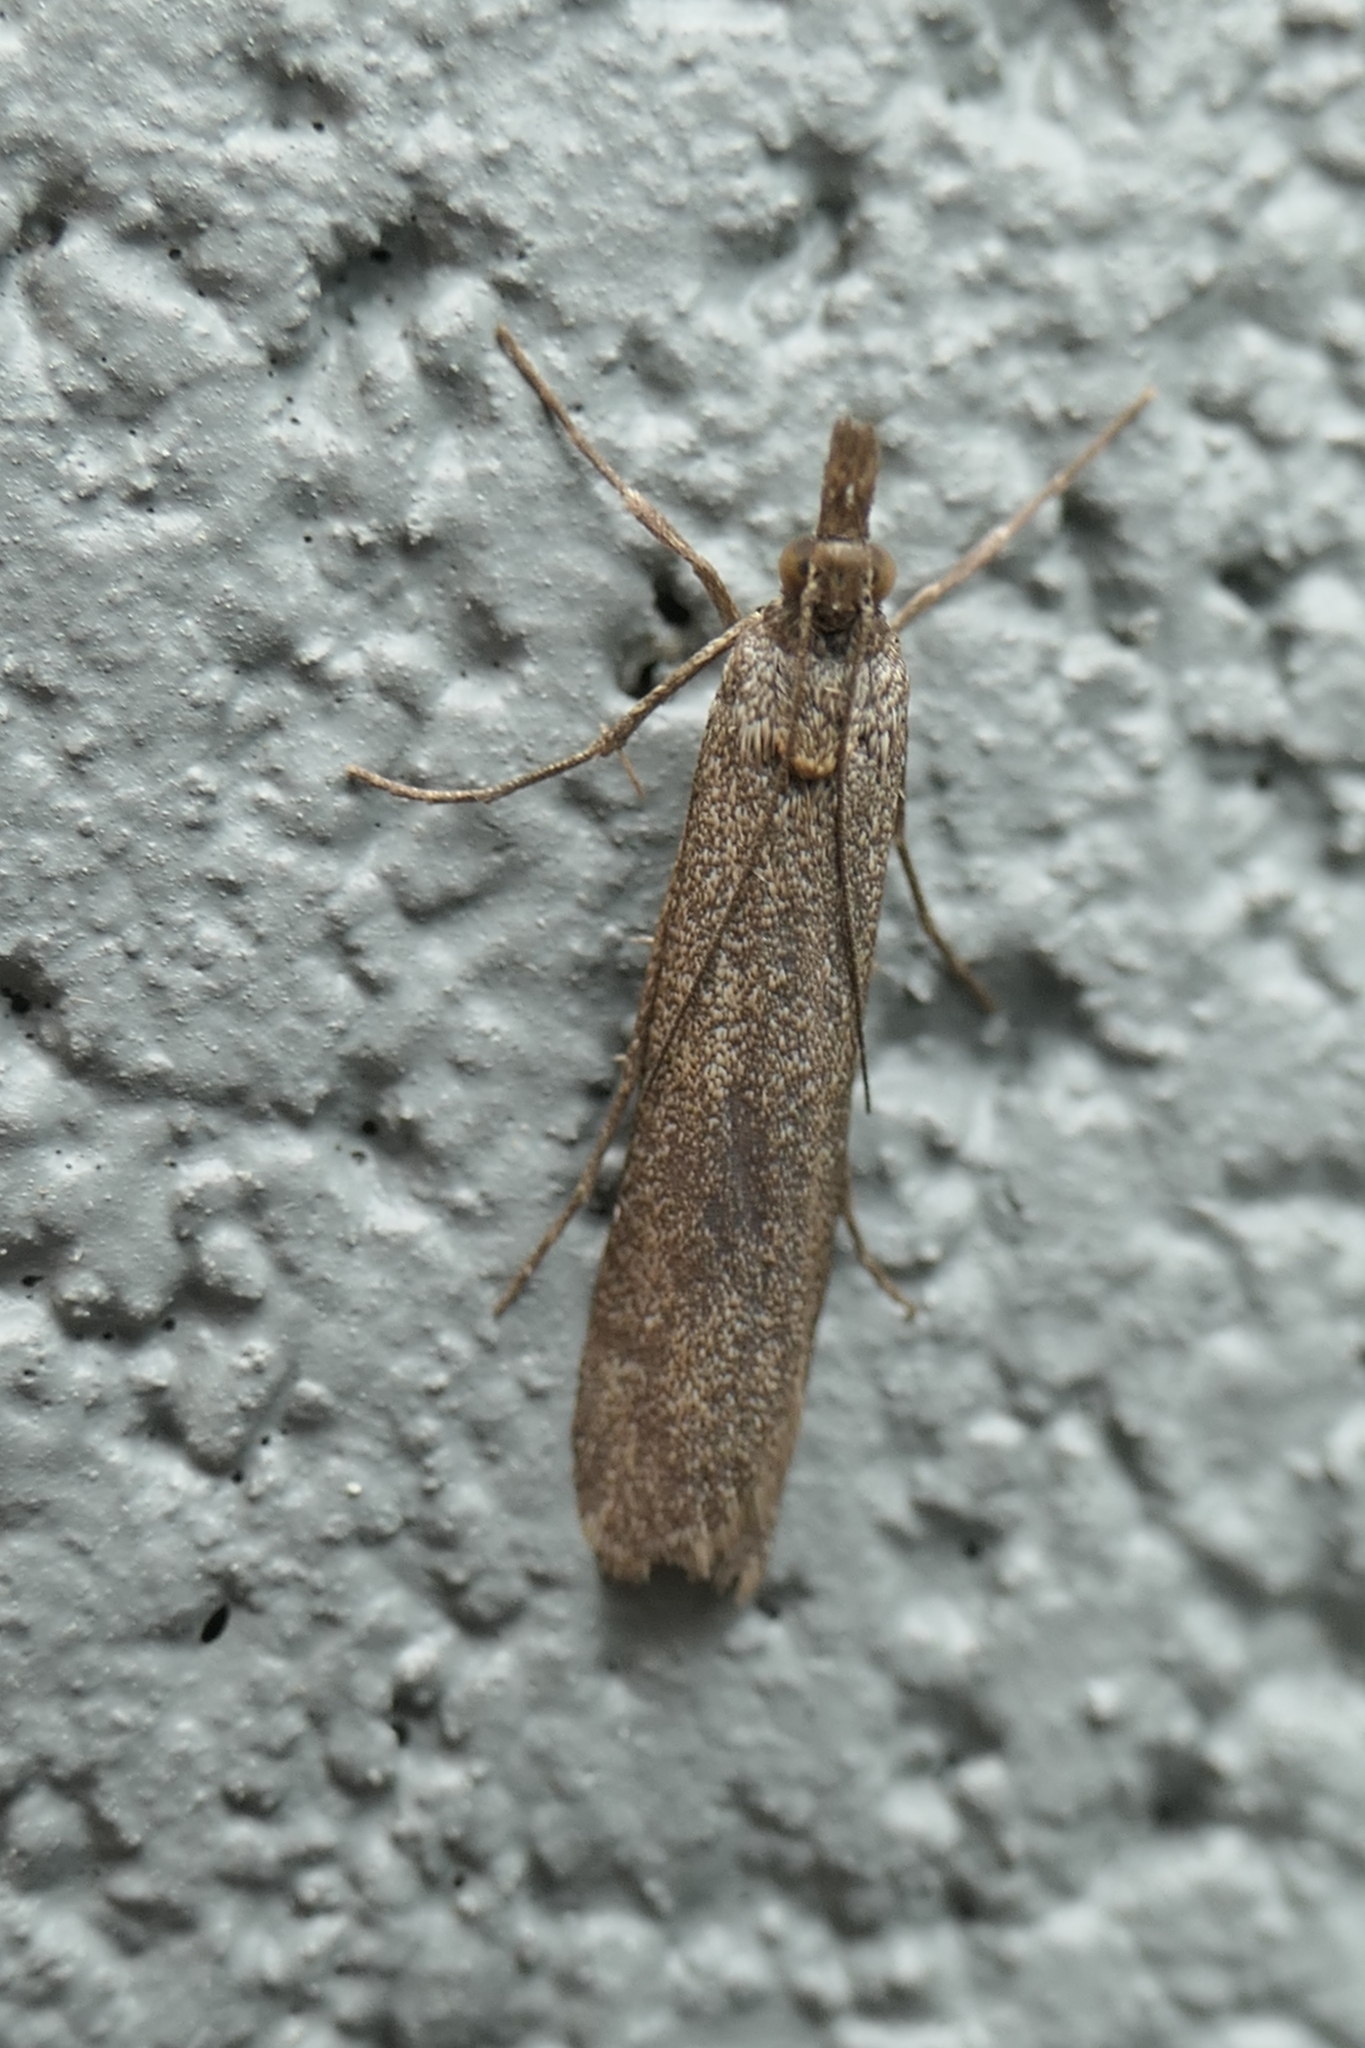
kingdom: Animalia
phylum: Arthropoda
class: Insecta
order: Lepidoptera
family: Crambidae
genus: Eudonia
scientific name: Eudonia leptalea
